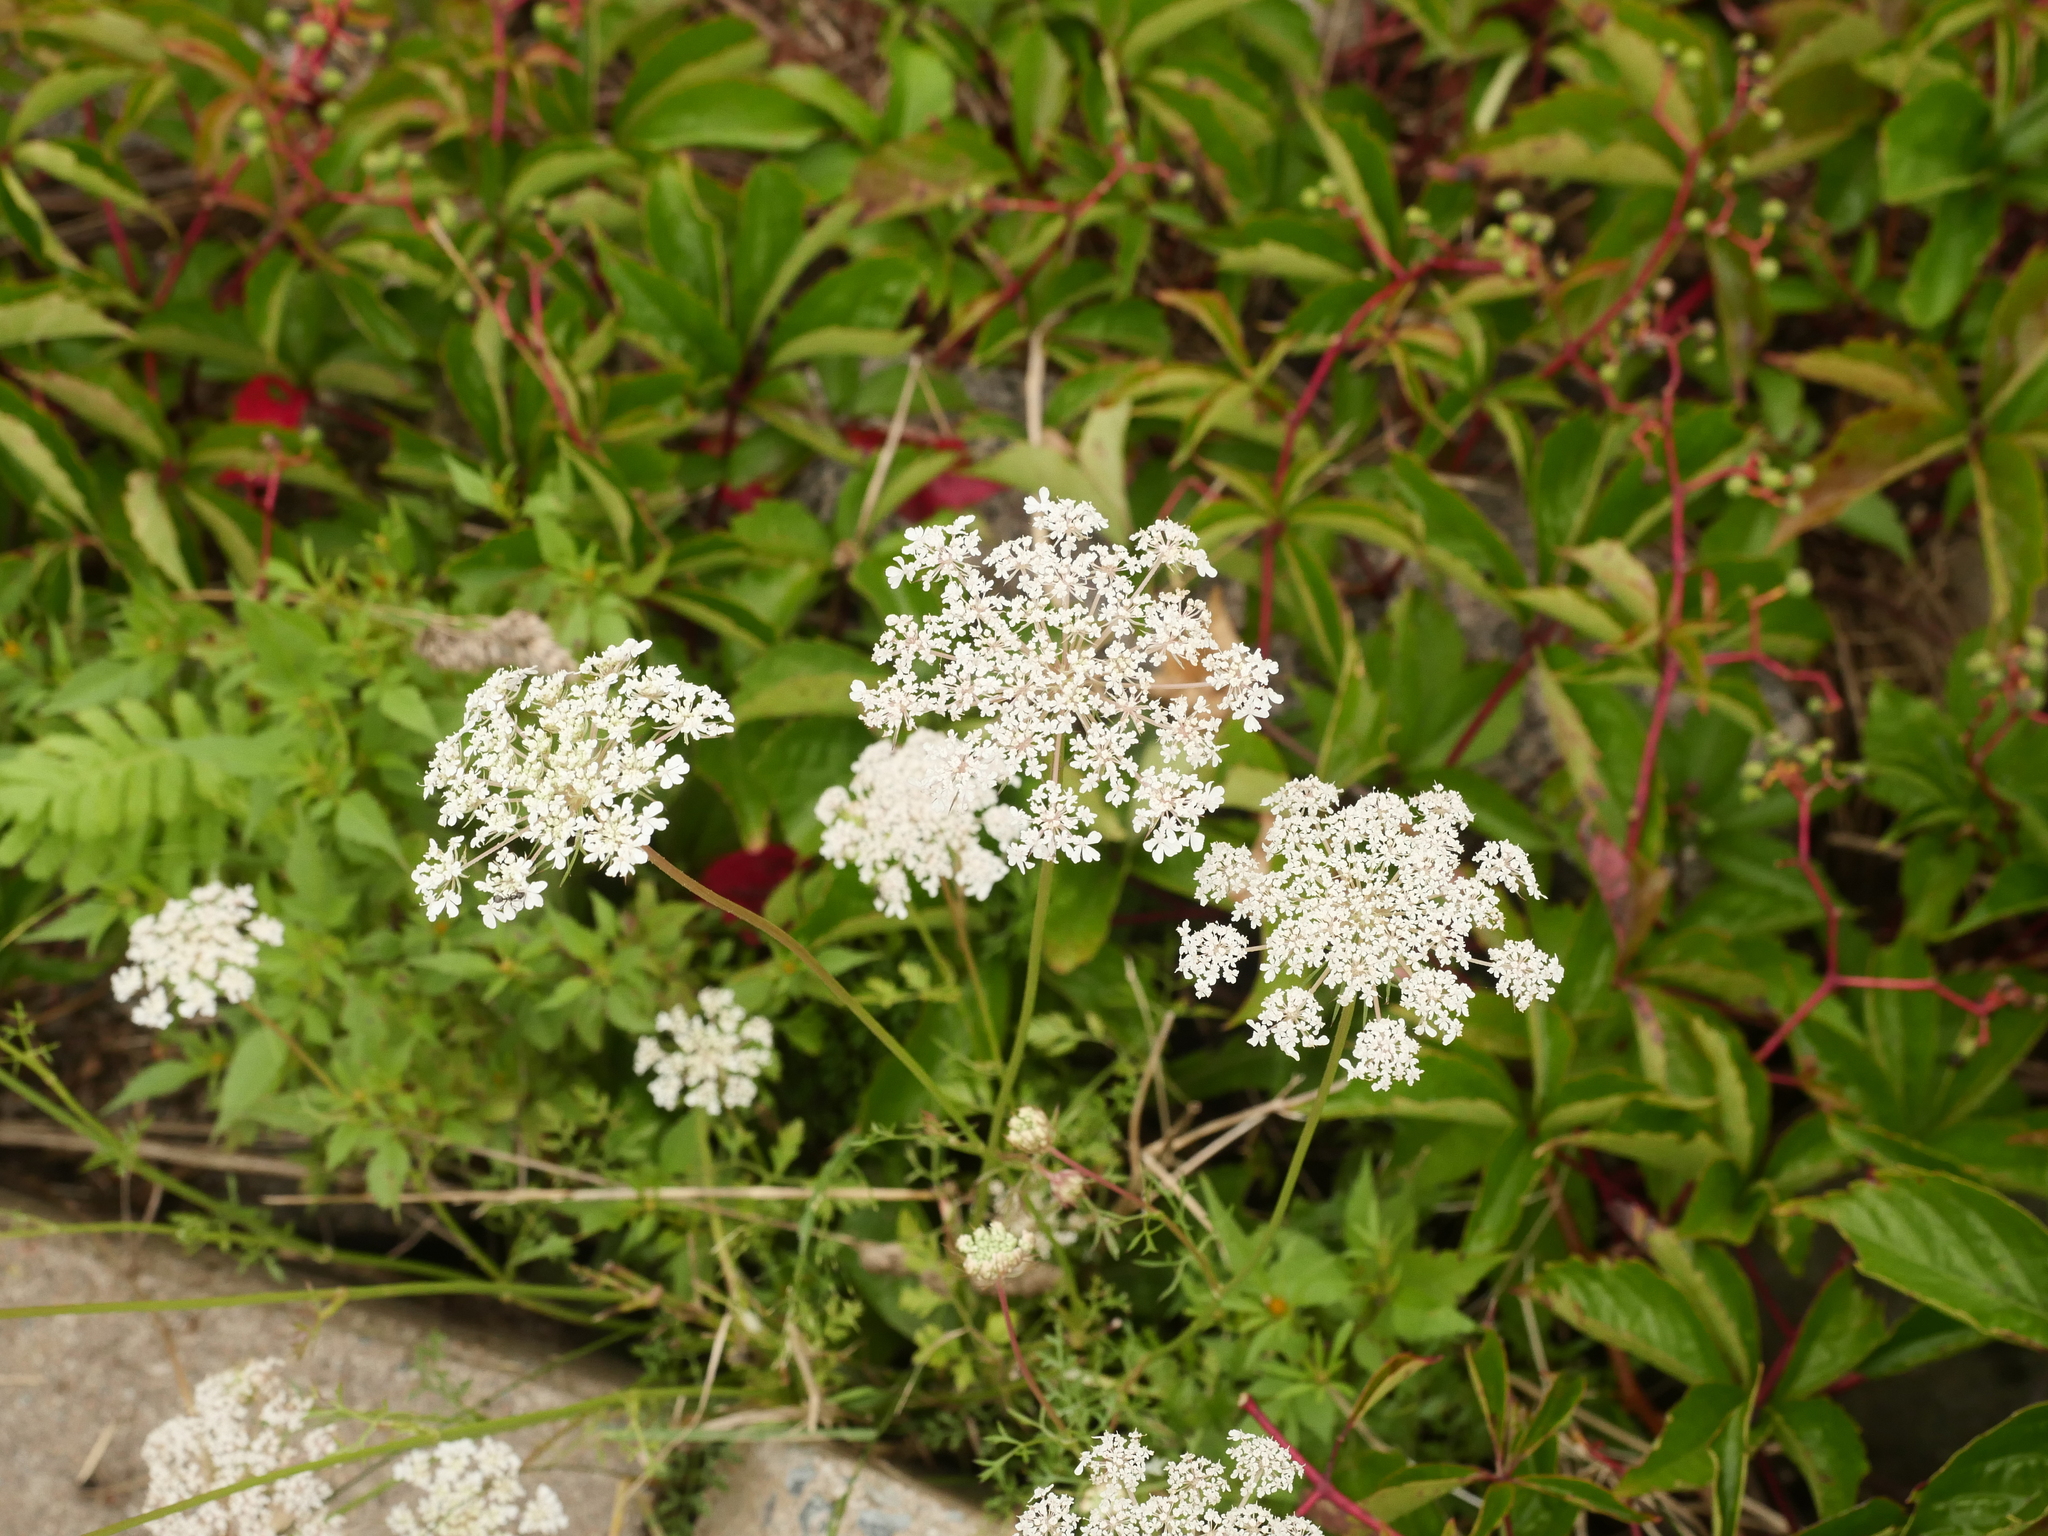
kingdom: Plantae
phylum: Tracheophyta
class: Magnoliopsida
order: Apiales
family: Apiaceae
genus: Daucus
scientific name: Daucus carota
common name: Wild carrot
